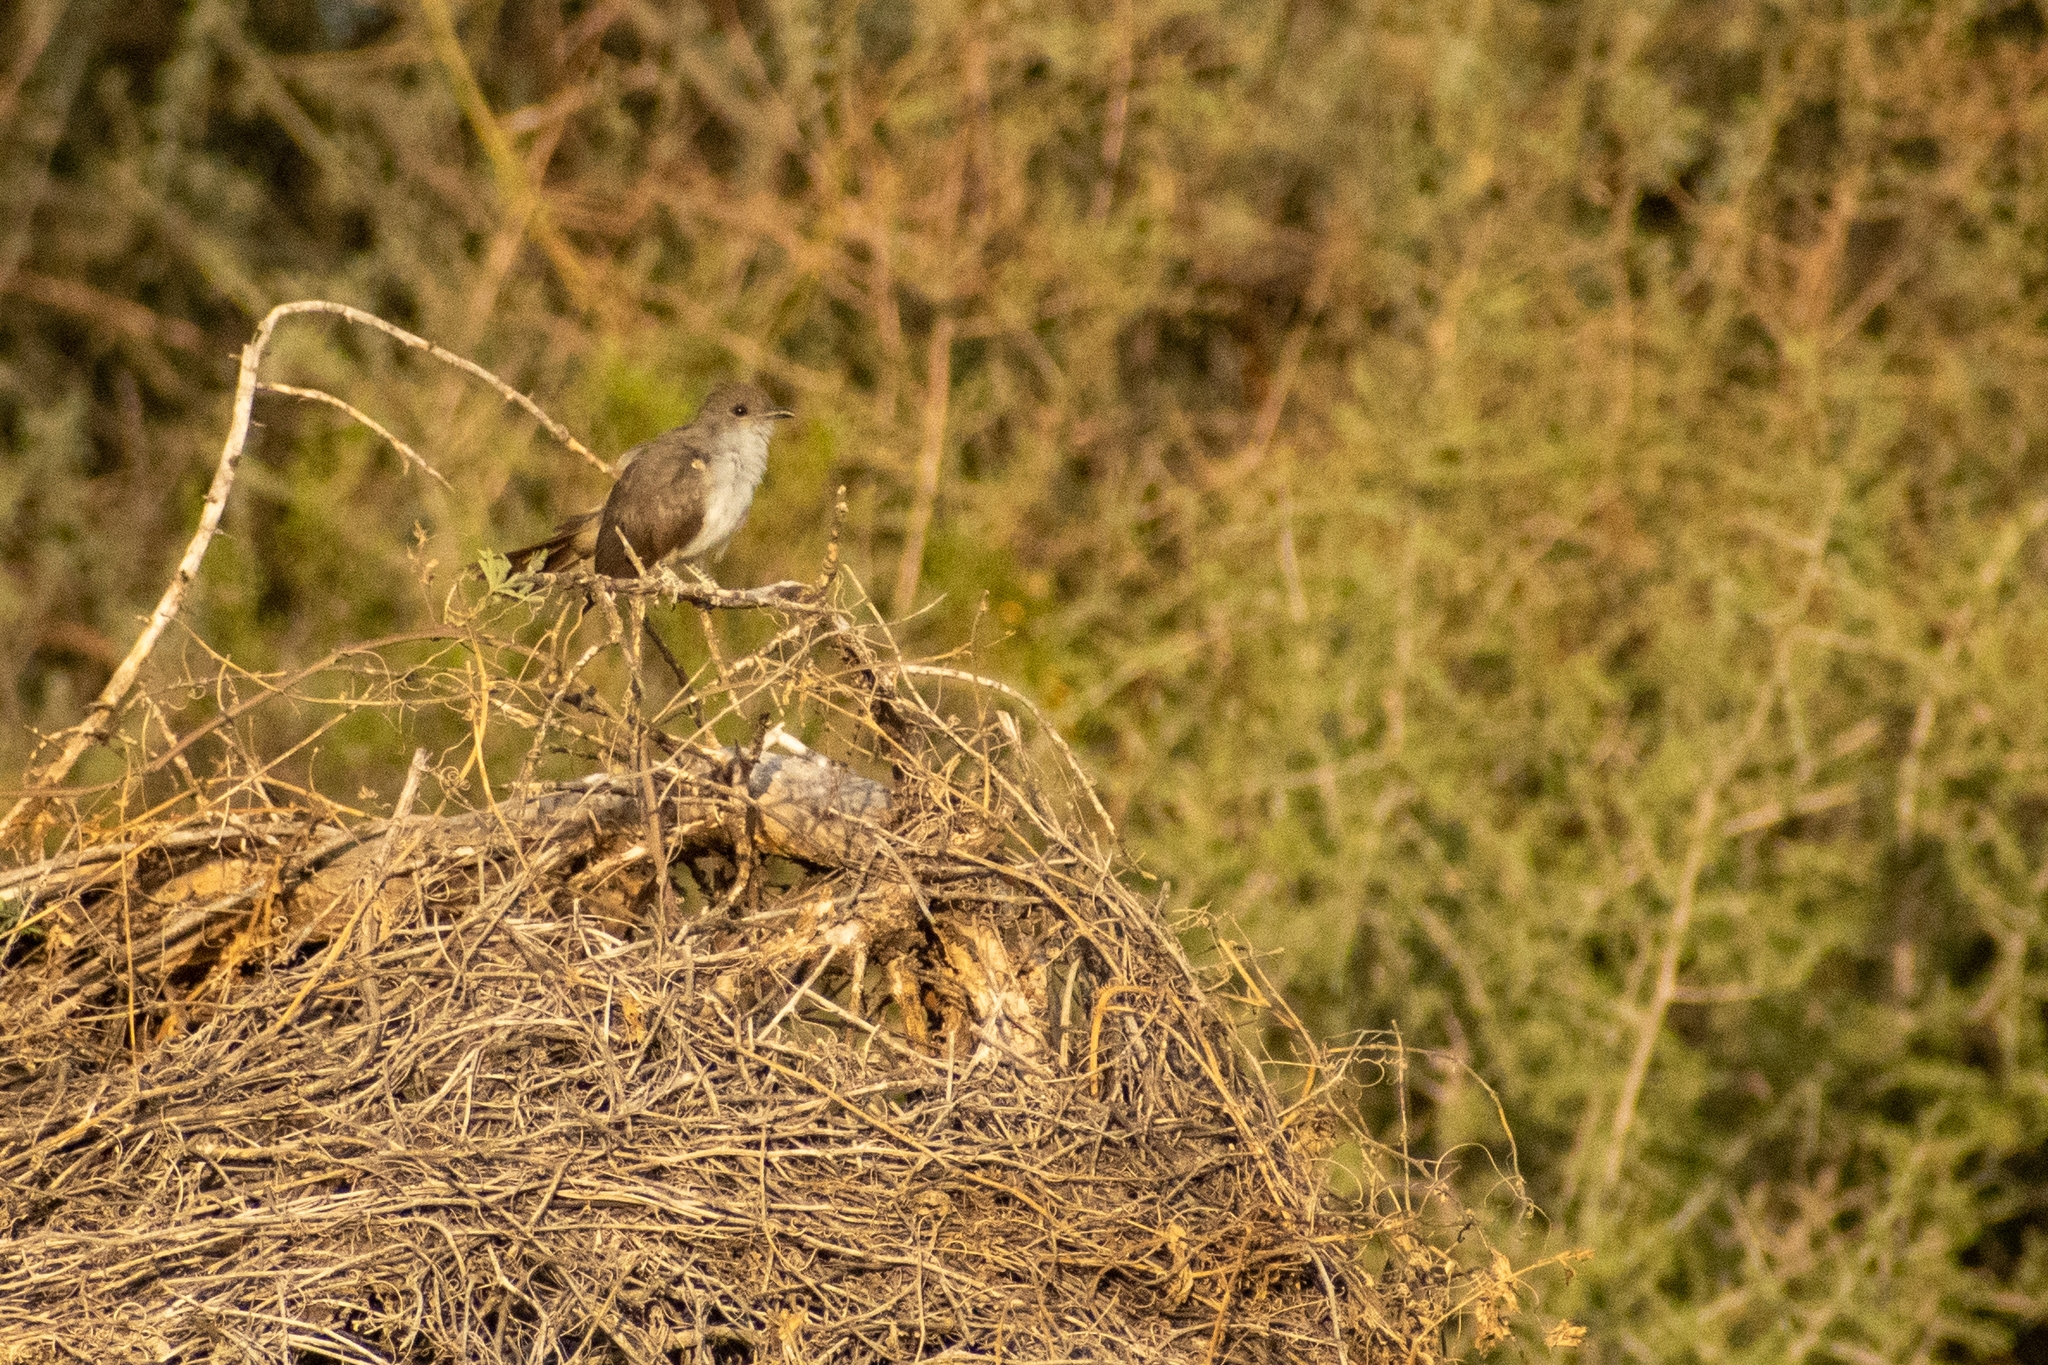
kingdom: Animalia
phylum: Chordata
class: Aves
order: Cuculiformes
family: Cuculidae
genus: Coccyzus
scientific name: Coccyzus cinereus
